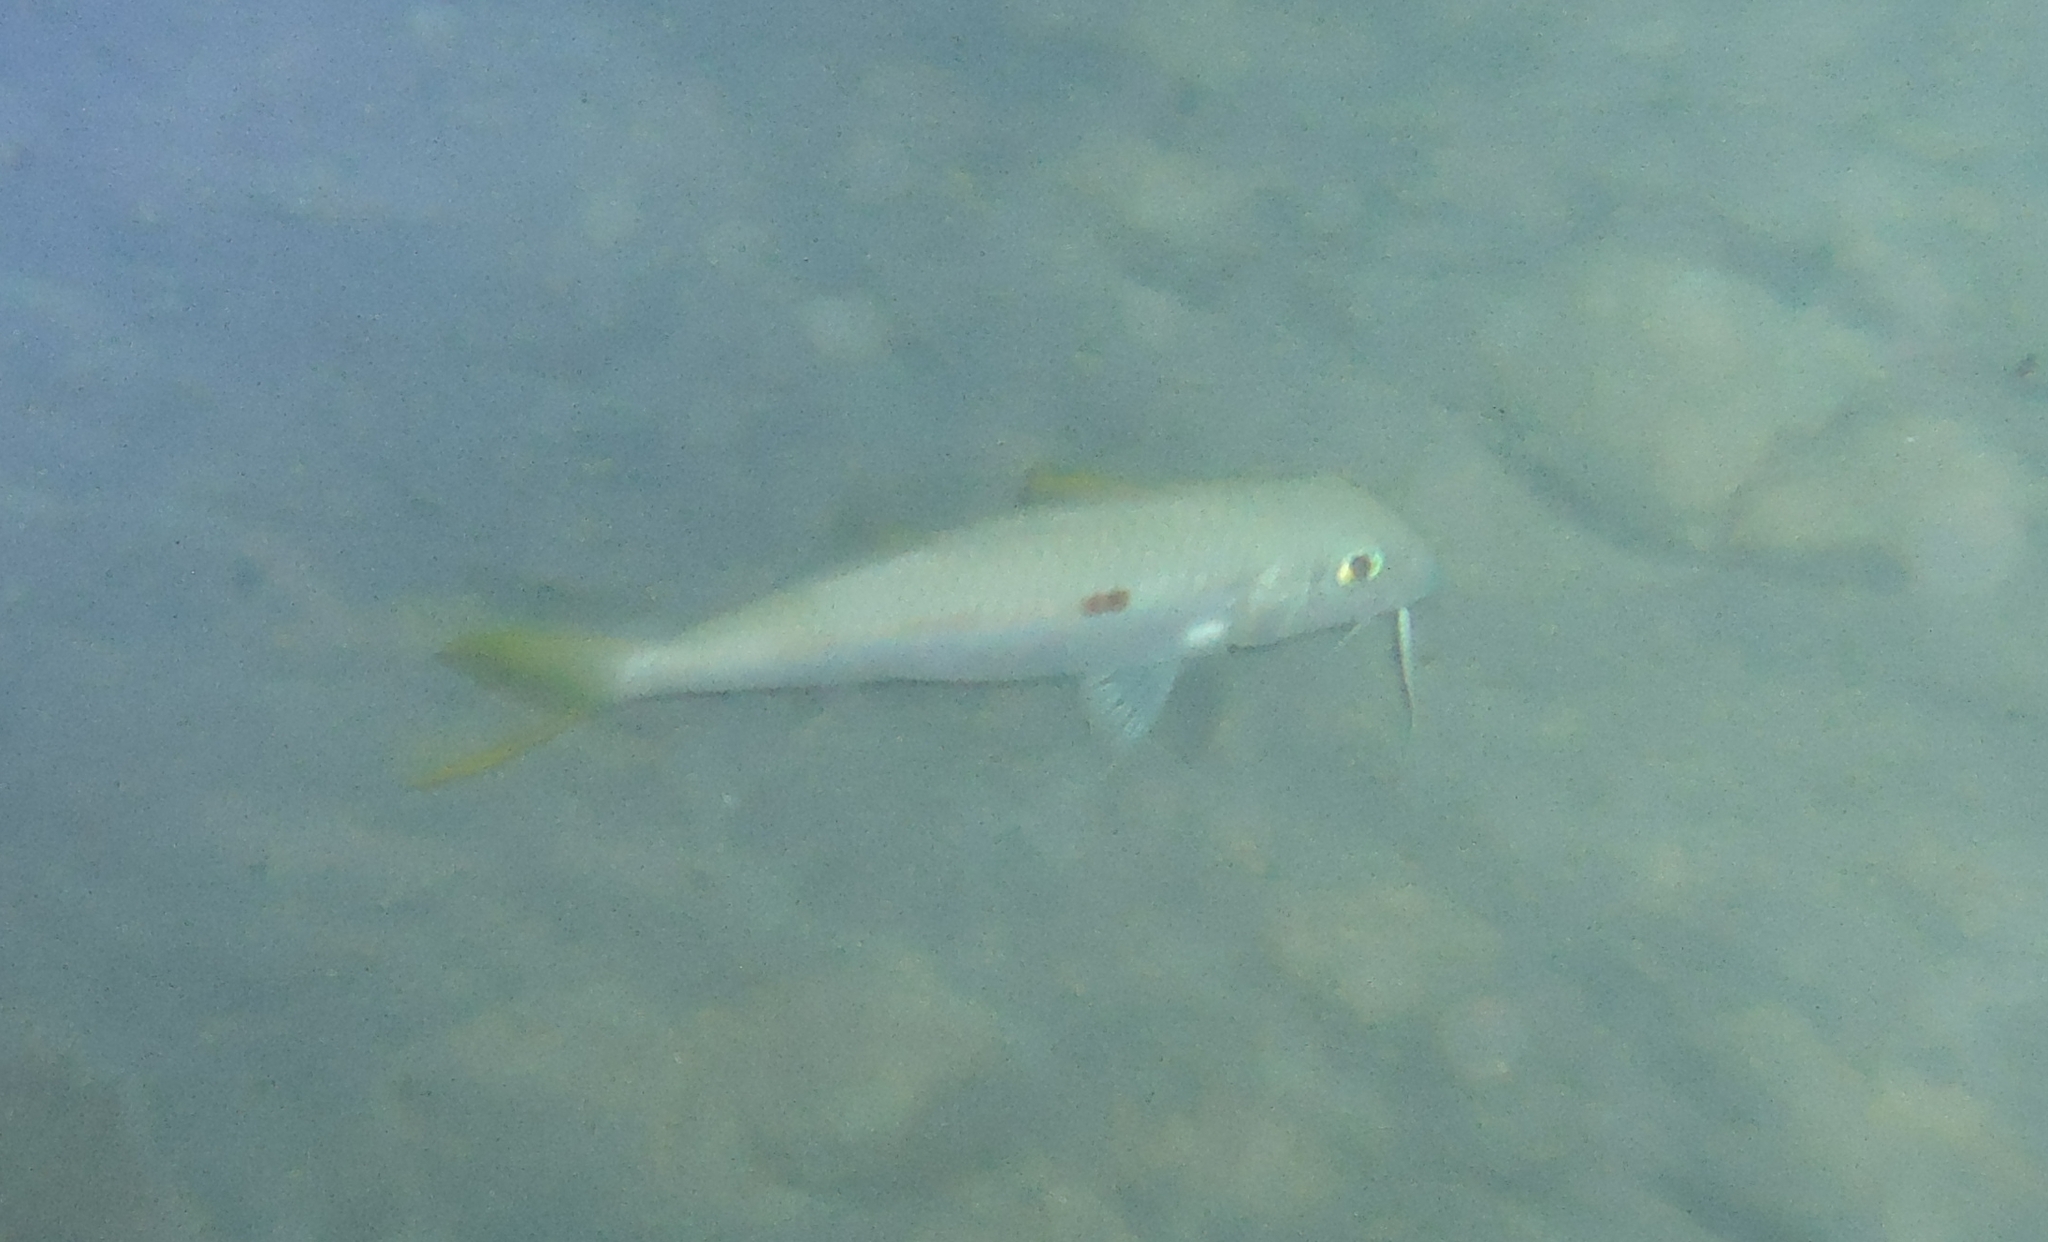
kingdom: Animalia
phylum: Chordata
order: Perciformes
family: Mullidae
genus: Mulloidichthys
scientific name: Mulloidichthys flavolineatus
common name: Yellowstripe goatfish
